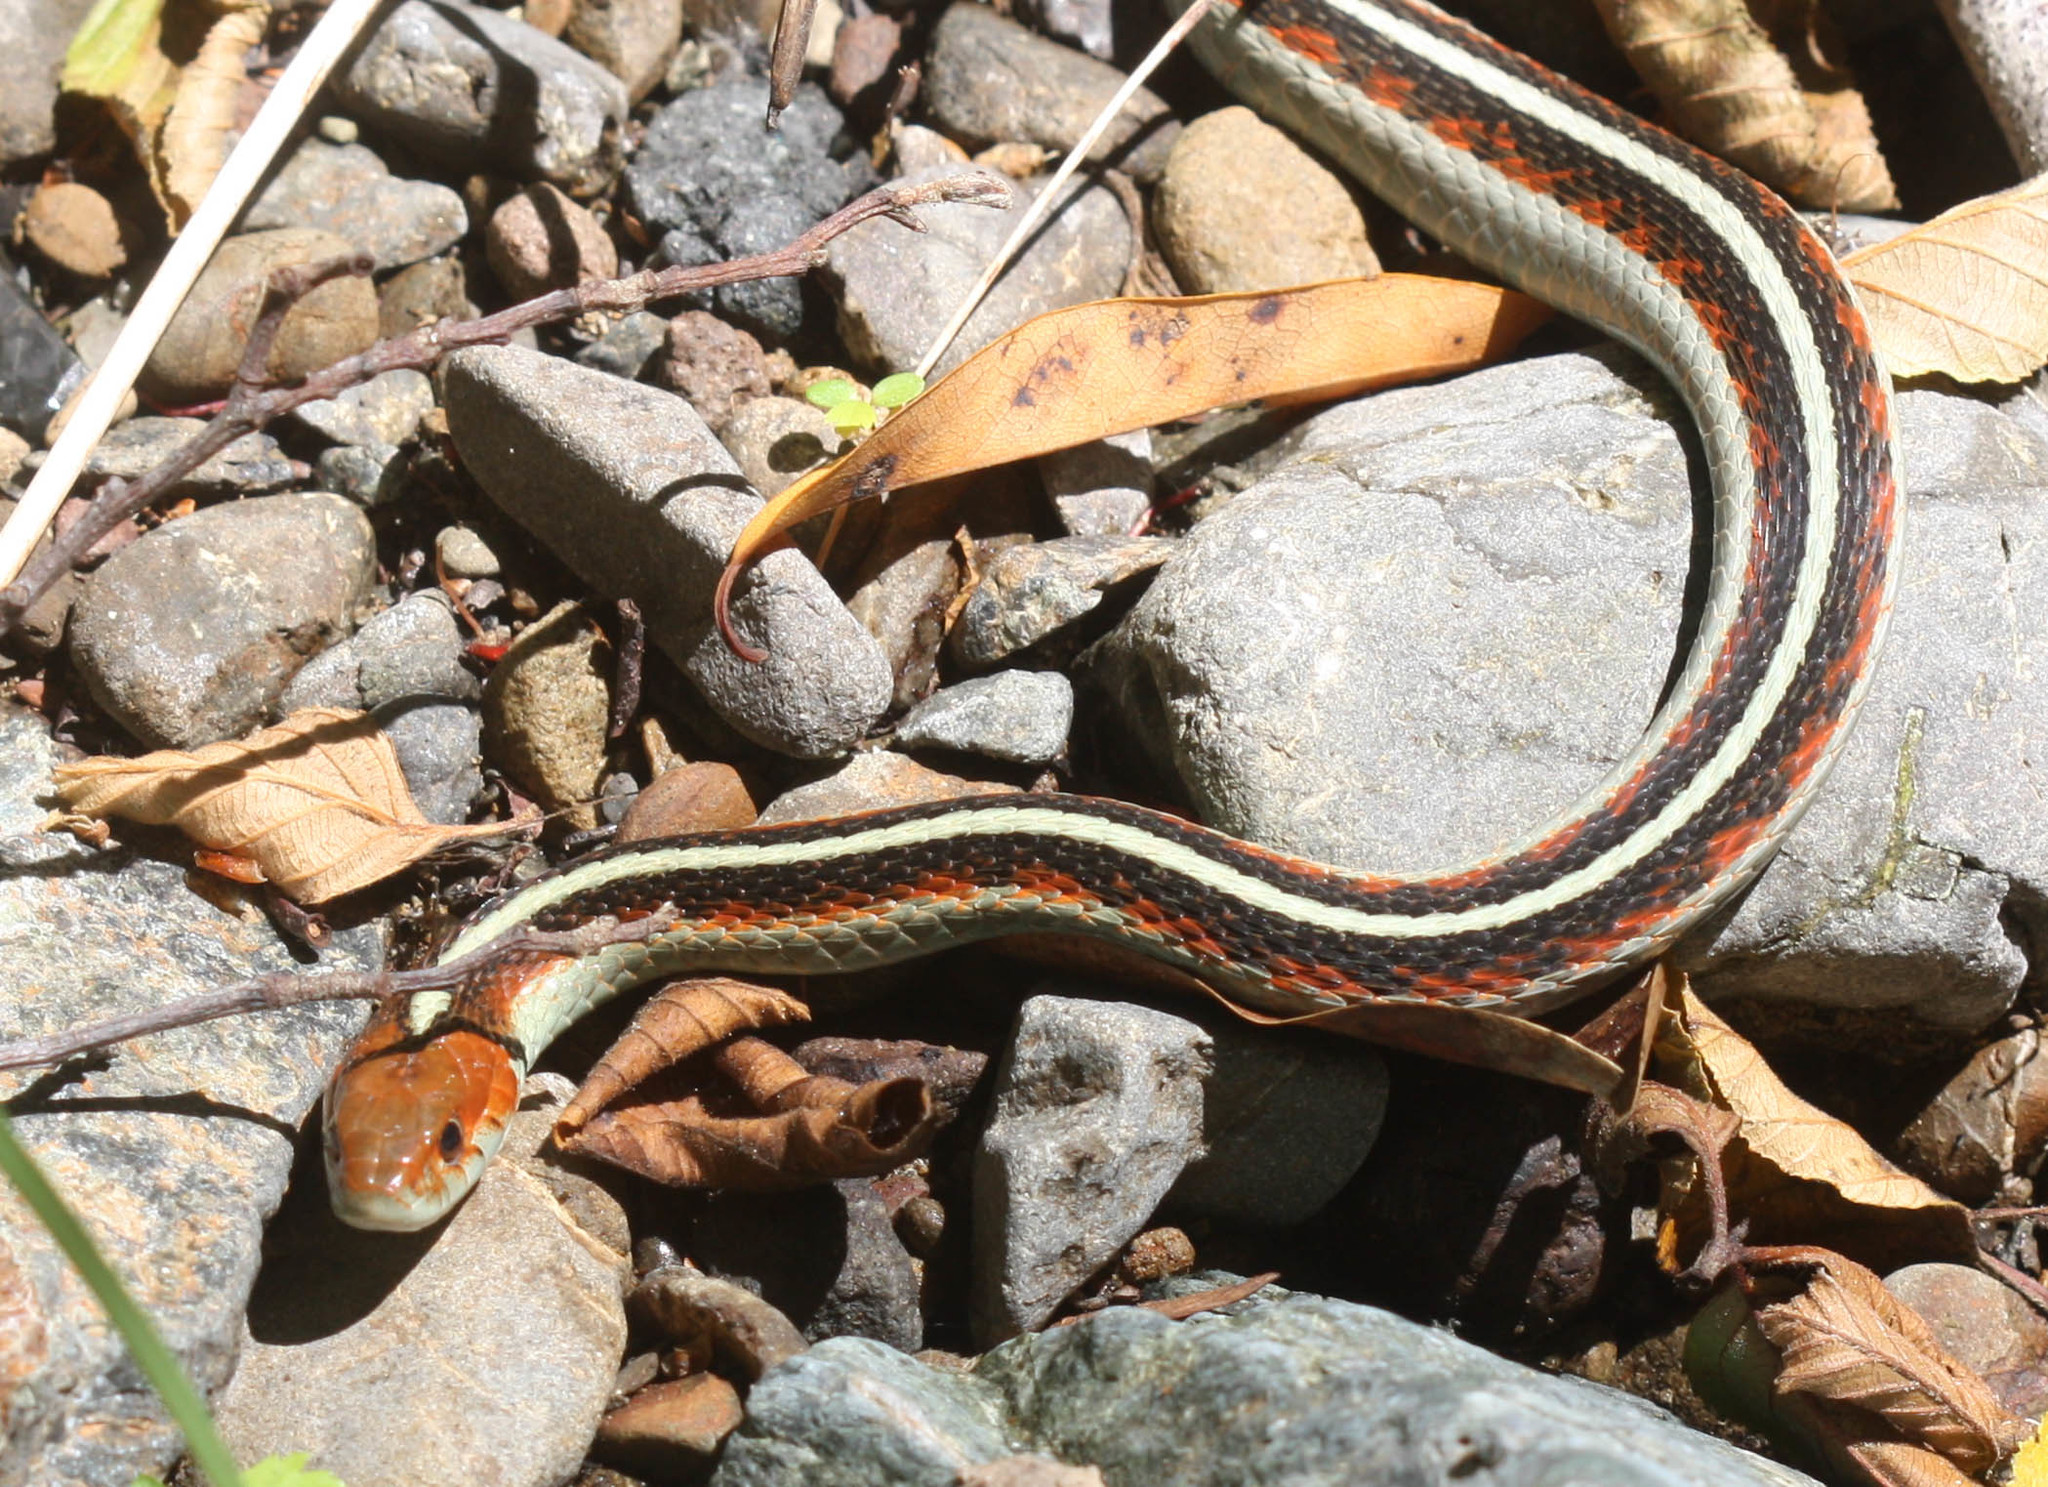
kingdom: Animalia
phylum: Chordata
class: Squamata
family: Colubridae
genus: Thamnophis
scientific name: Thamnophis sirtalis
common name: Common garter snake
